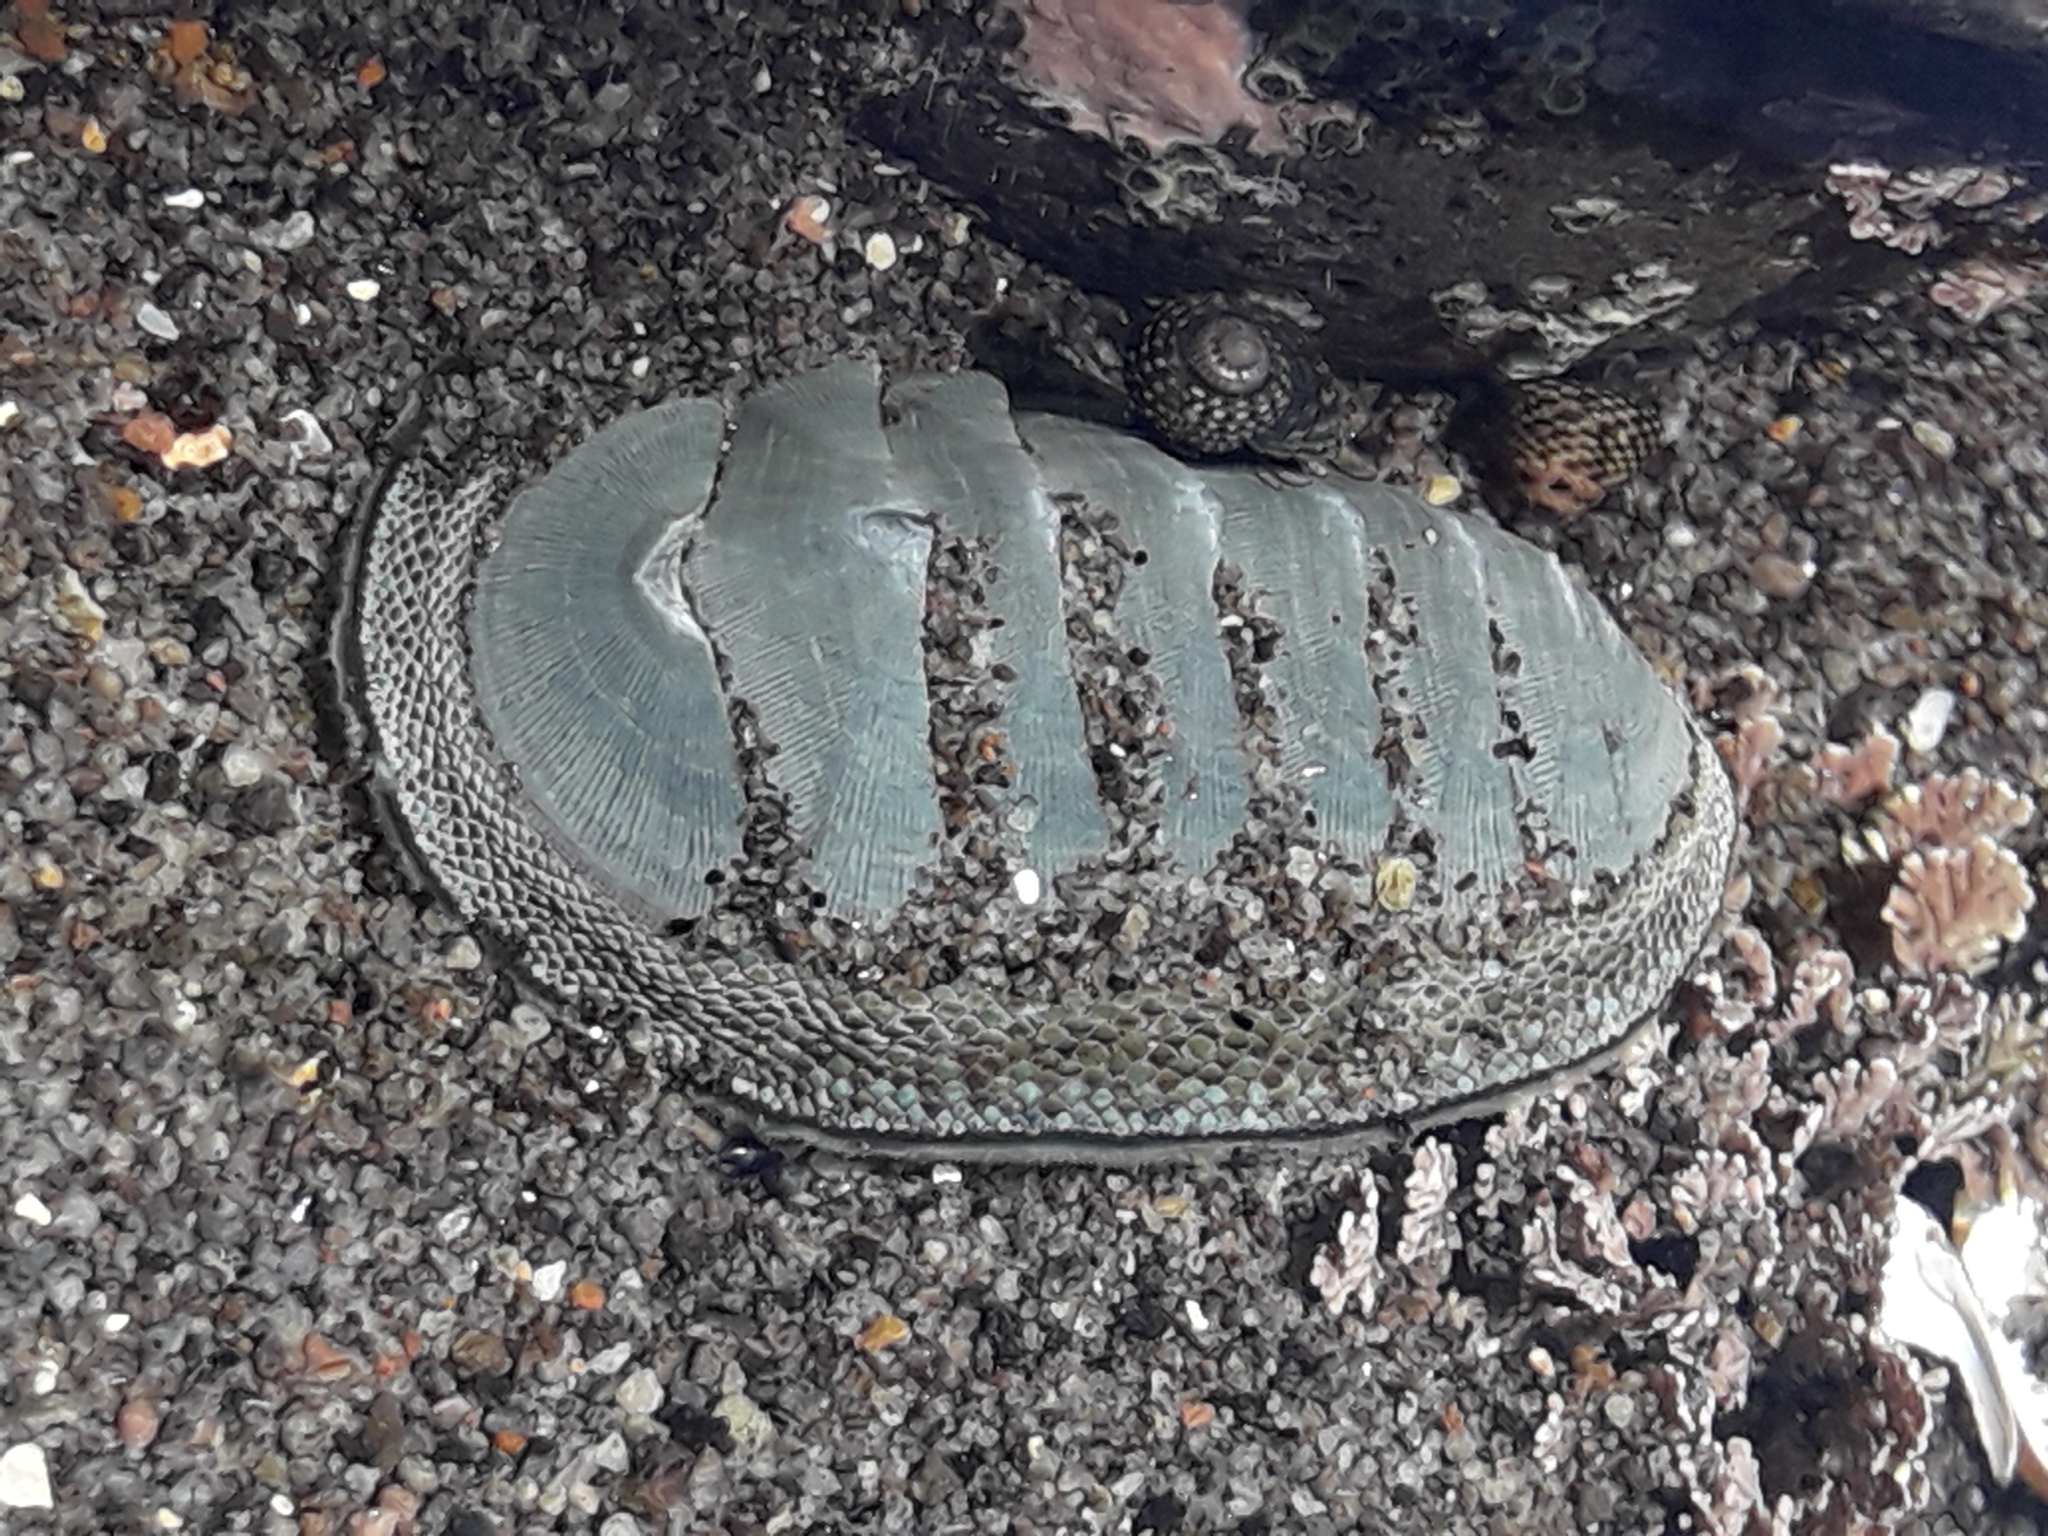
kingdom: Animalia
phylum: Mollusca
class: Polyplacophora
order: Chitonida
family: Chitonidae
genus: Chiton
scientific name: Chiton glaucus
